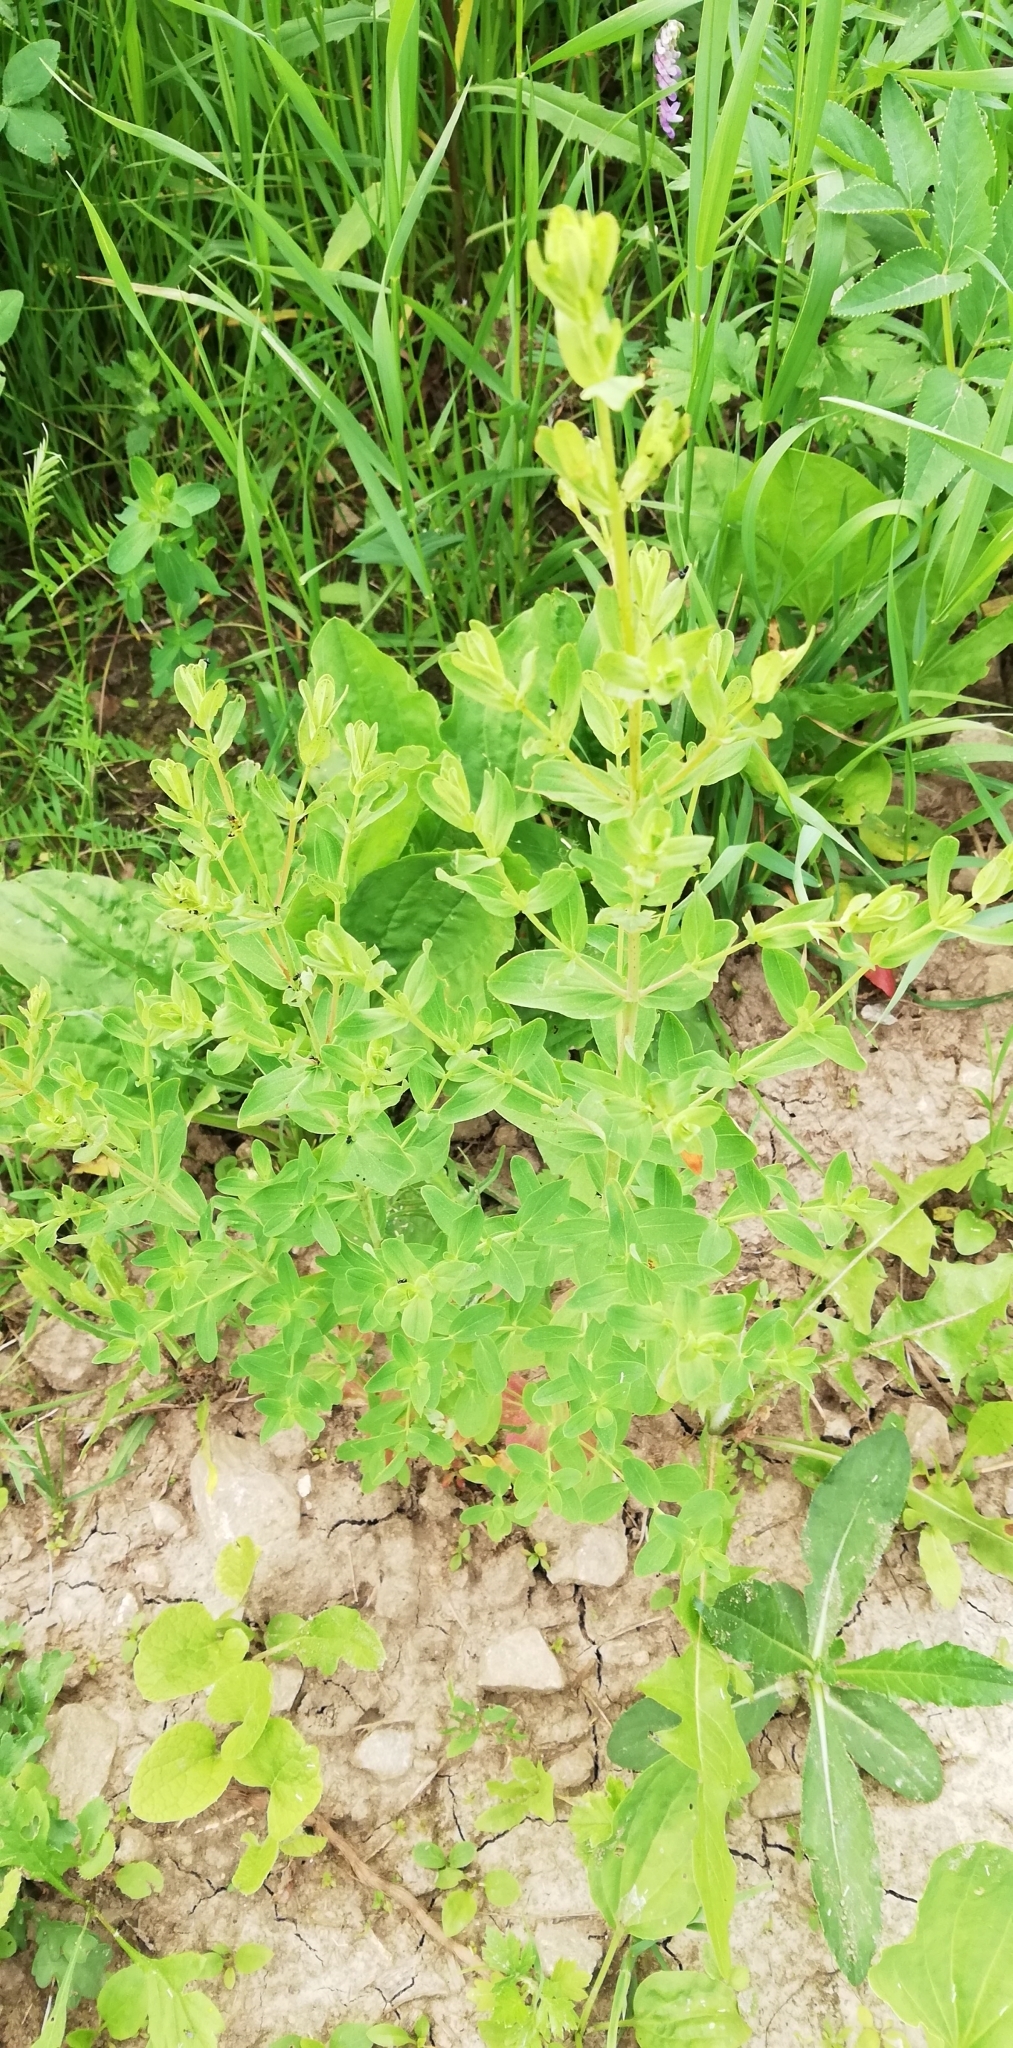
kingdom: Plantae
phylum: Tracheophyta
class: Magnoliopsida
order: Malpighiales
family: Hypericaceae
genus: Hypericum
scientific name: Hypericum perforatum
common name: Common st. johnswort
